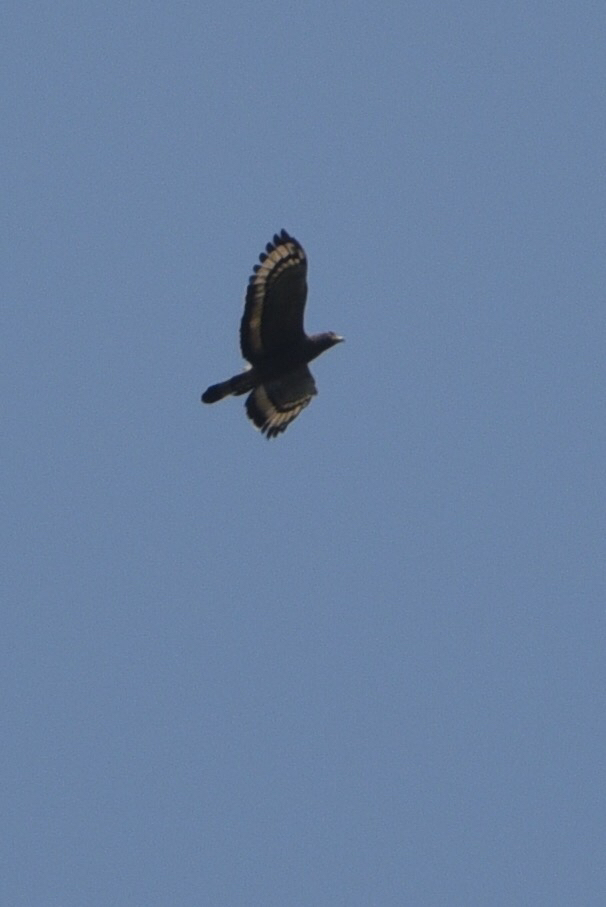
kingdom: Animalia
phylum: Chordata
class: Aves
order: Accipitriformes
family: Accipitridae
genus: Spilornis
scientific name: Spilornis cheela
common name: Crested serpent eagle
